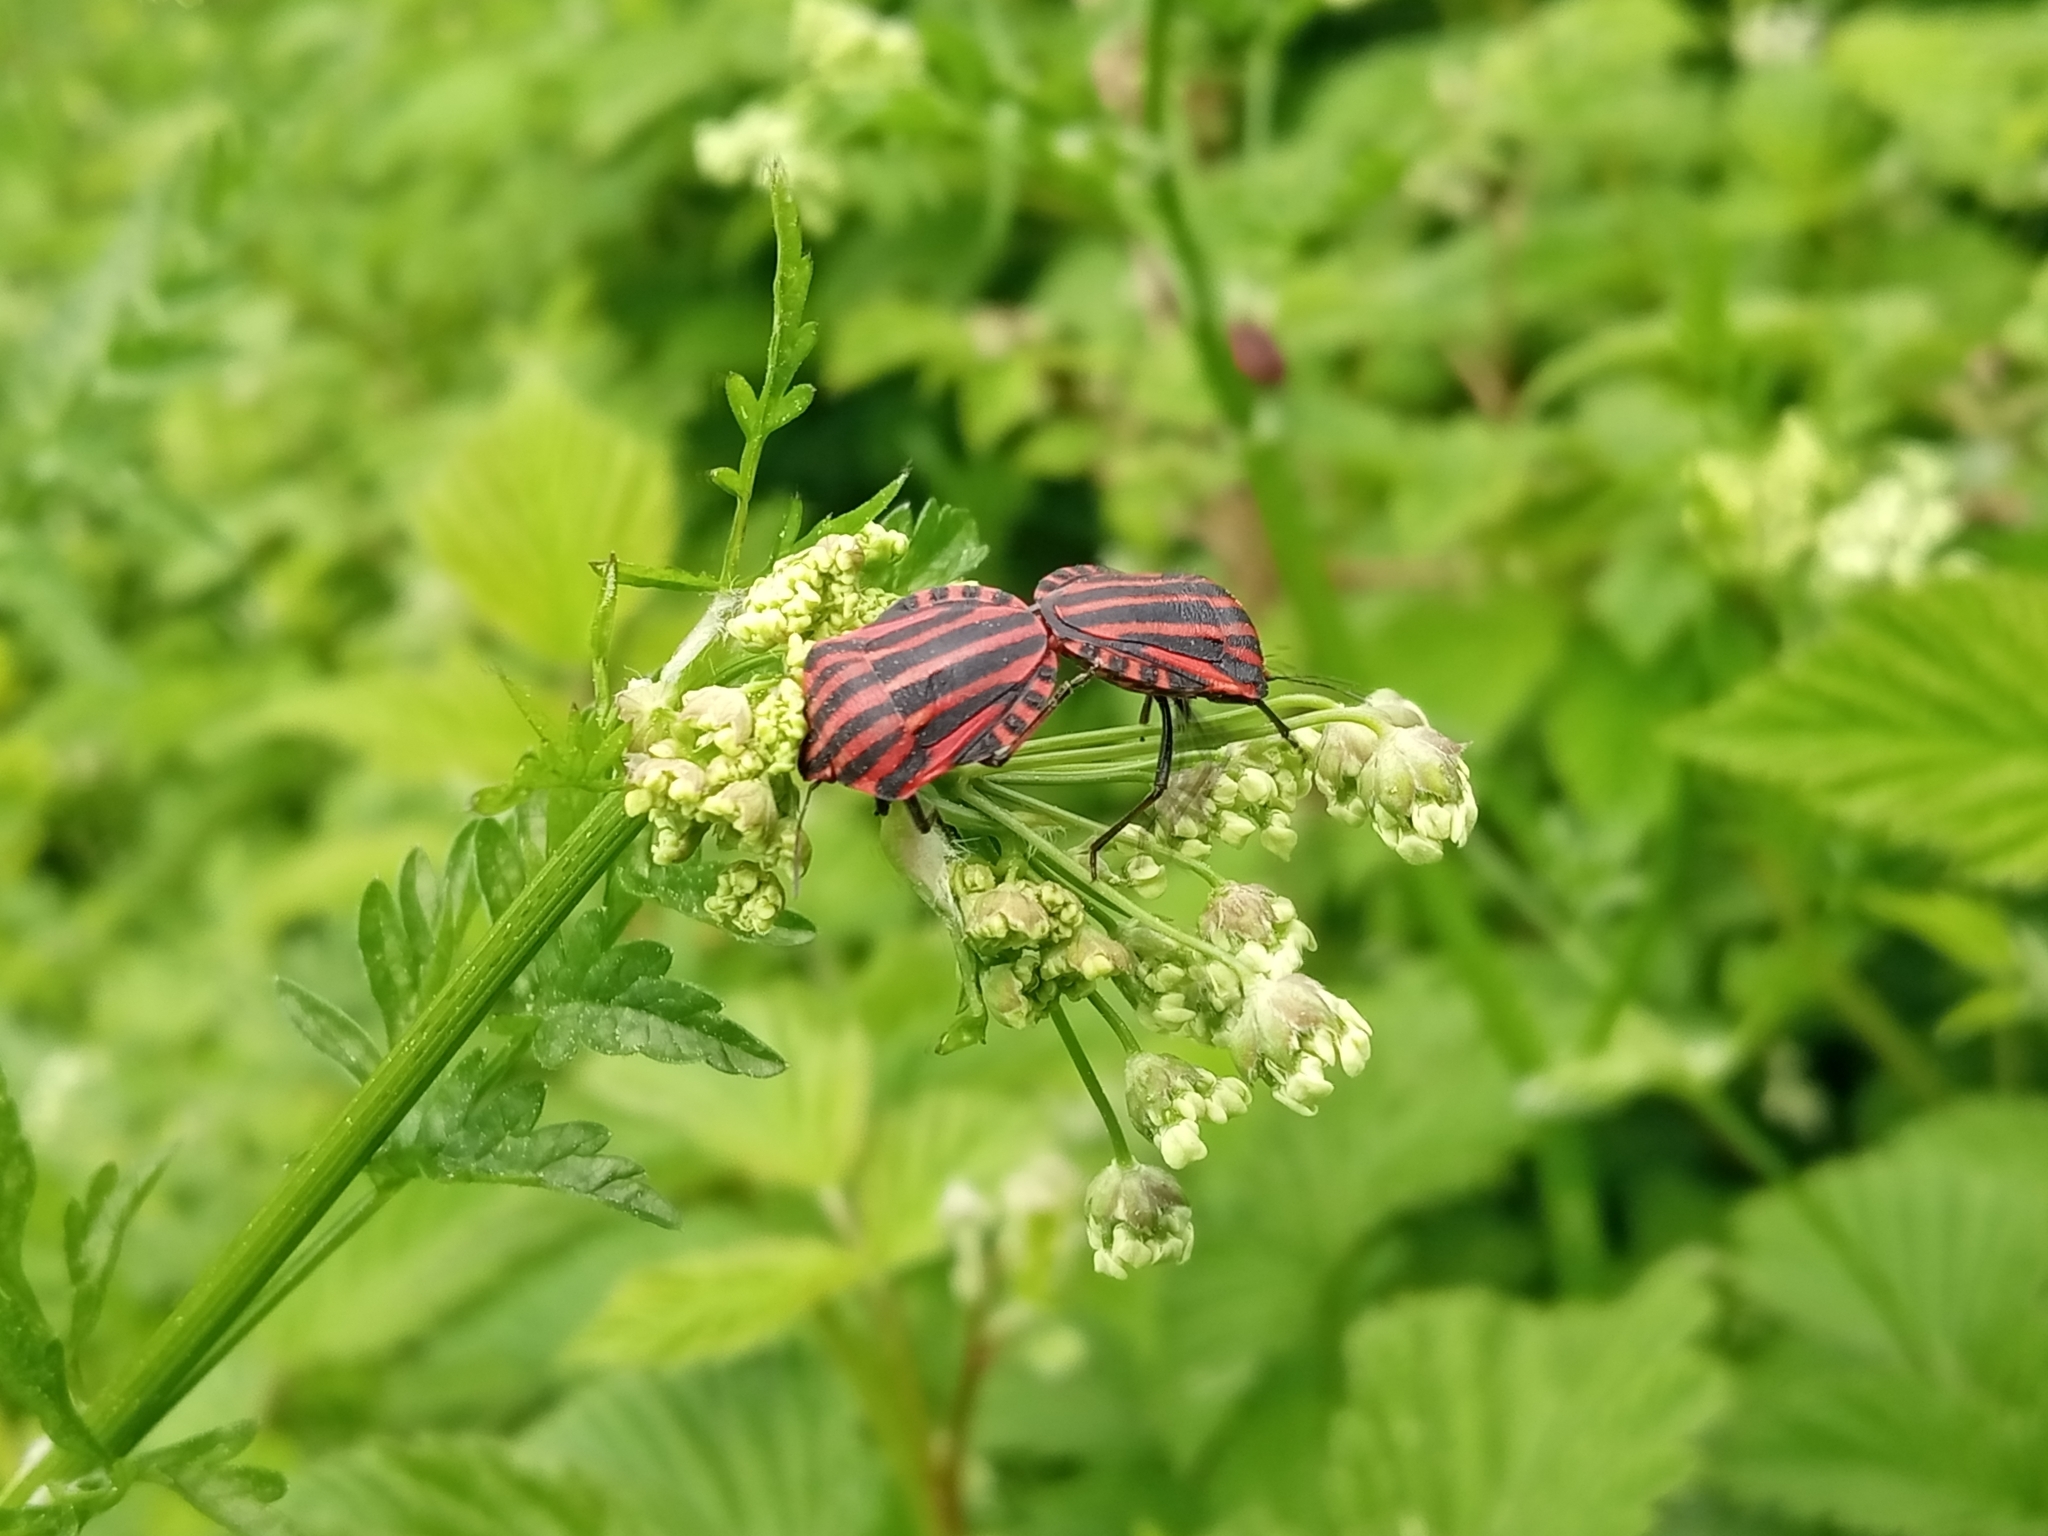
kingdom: Animalia
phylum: Arthropoda
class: Insecta
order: Hemiptera
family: Pentatomidae
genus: Graphosoma
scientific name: Graphosoma italicum
